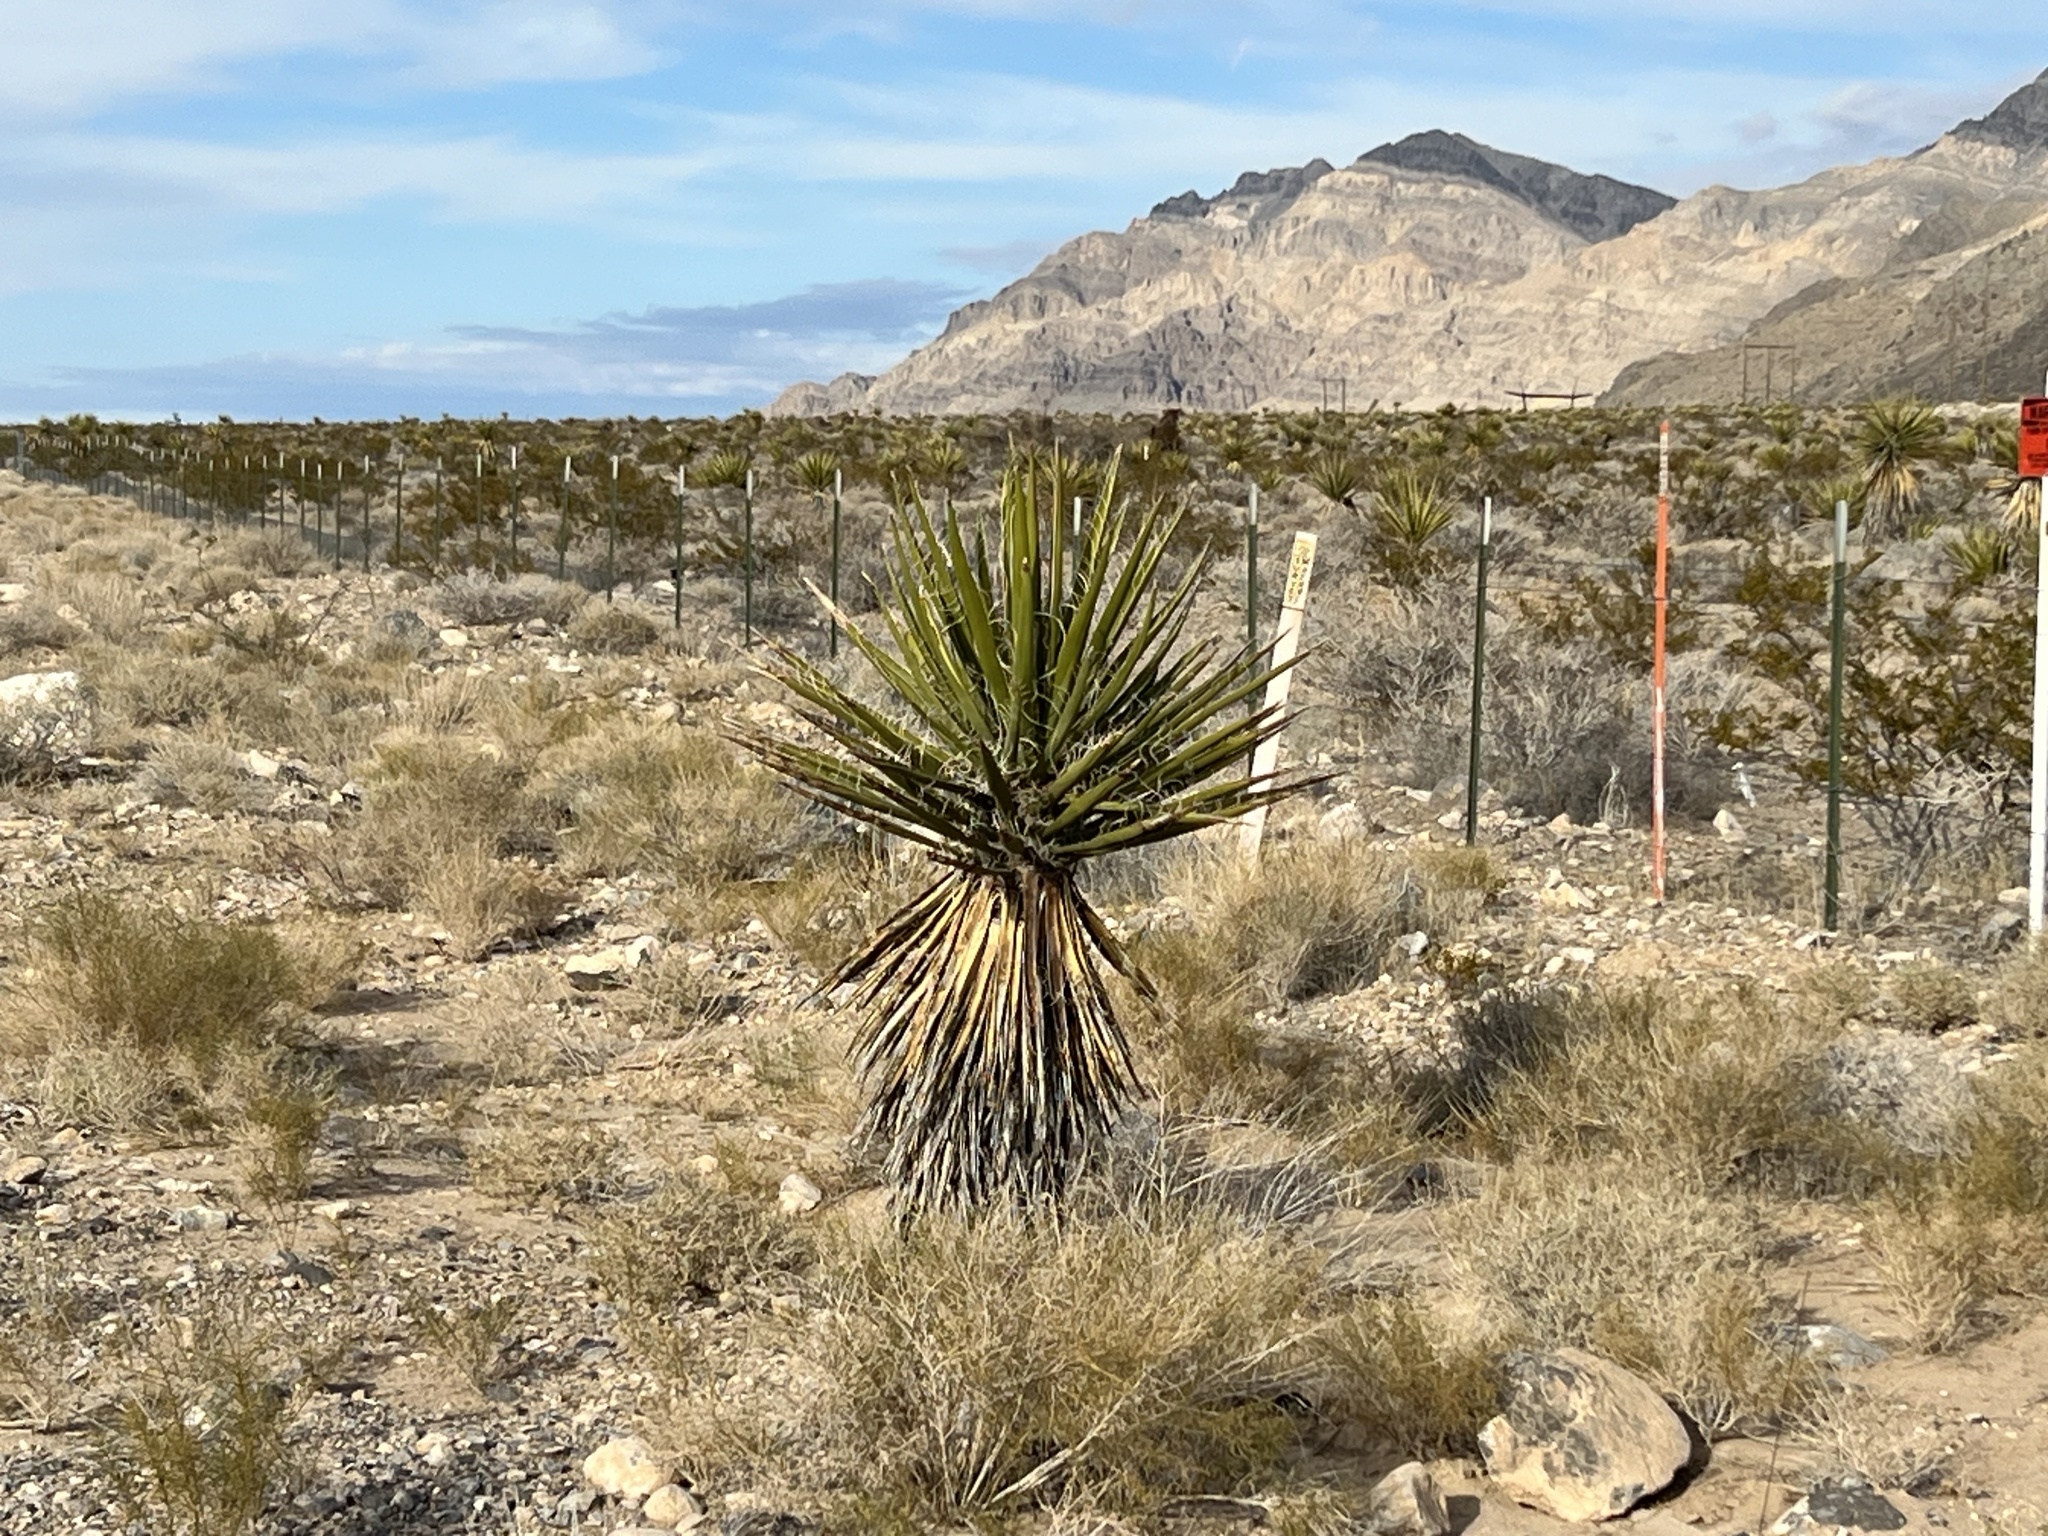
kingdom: Plantae
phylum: Tracheophyta
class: Liliopsida
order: Asparagales
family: Asparagaceae
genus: Yucca
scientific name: Yucca schidigera
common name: Mojave yucca
